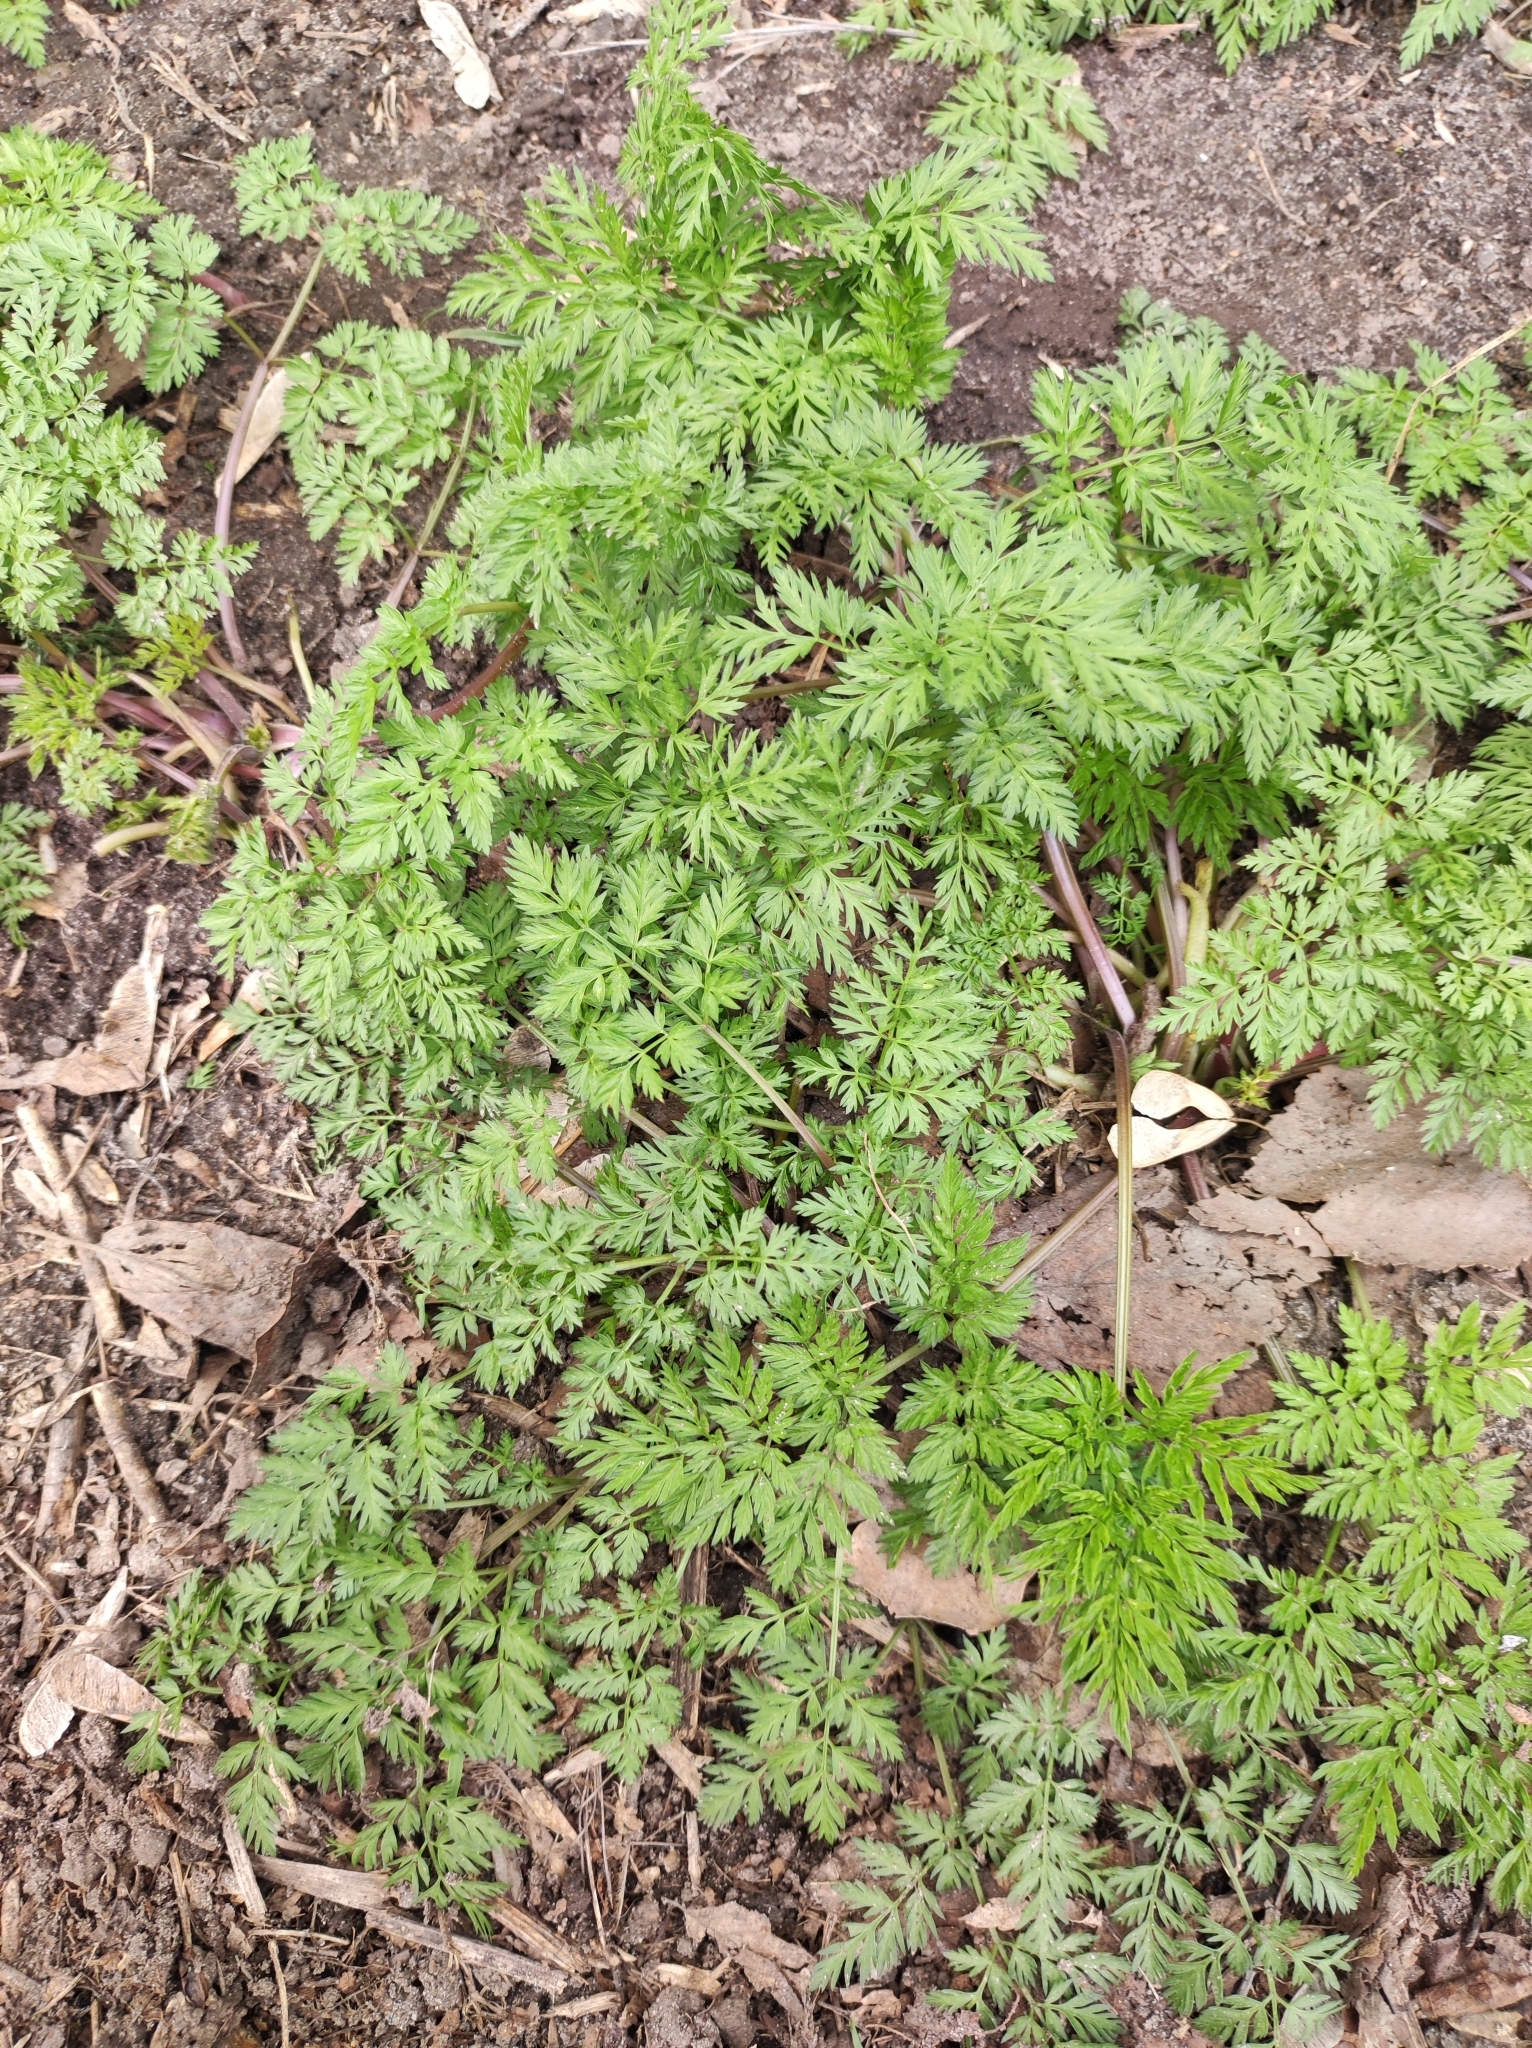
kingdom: Plantae
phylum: Tracheophyta
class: Magnoliopsida
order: Apiales
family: Apiaceae
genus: Anthriscus
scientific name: Anthriscus sylvestris
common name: Cow parsley
